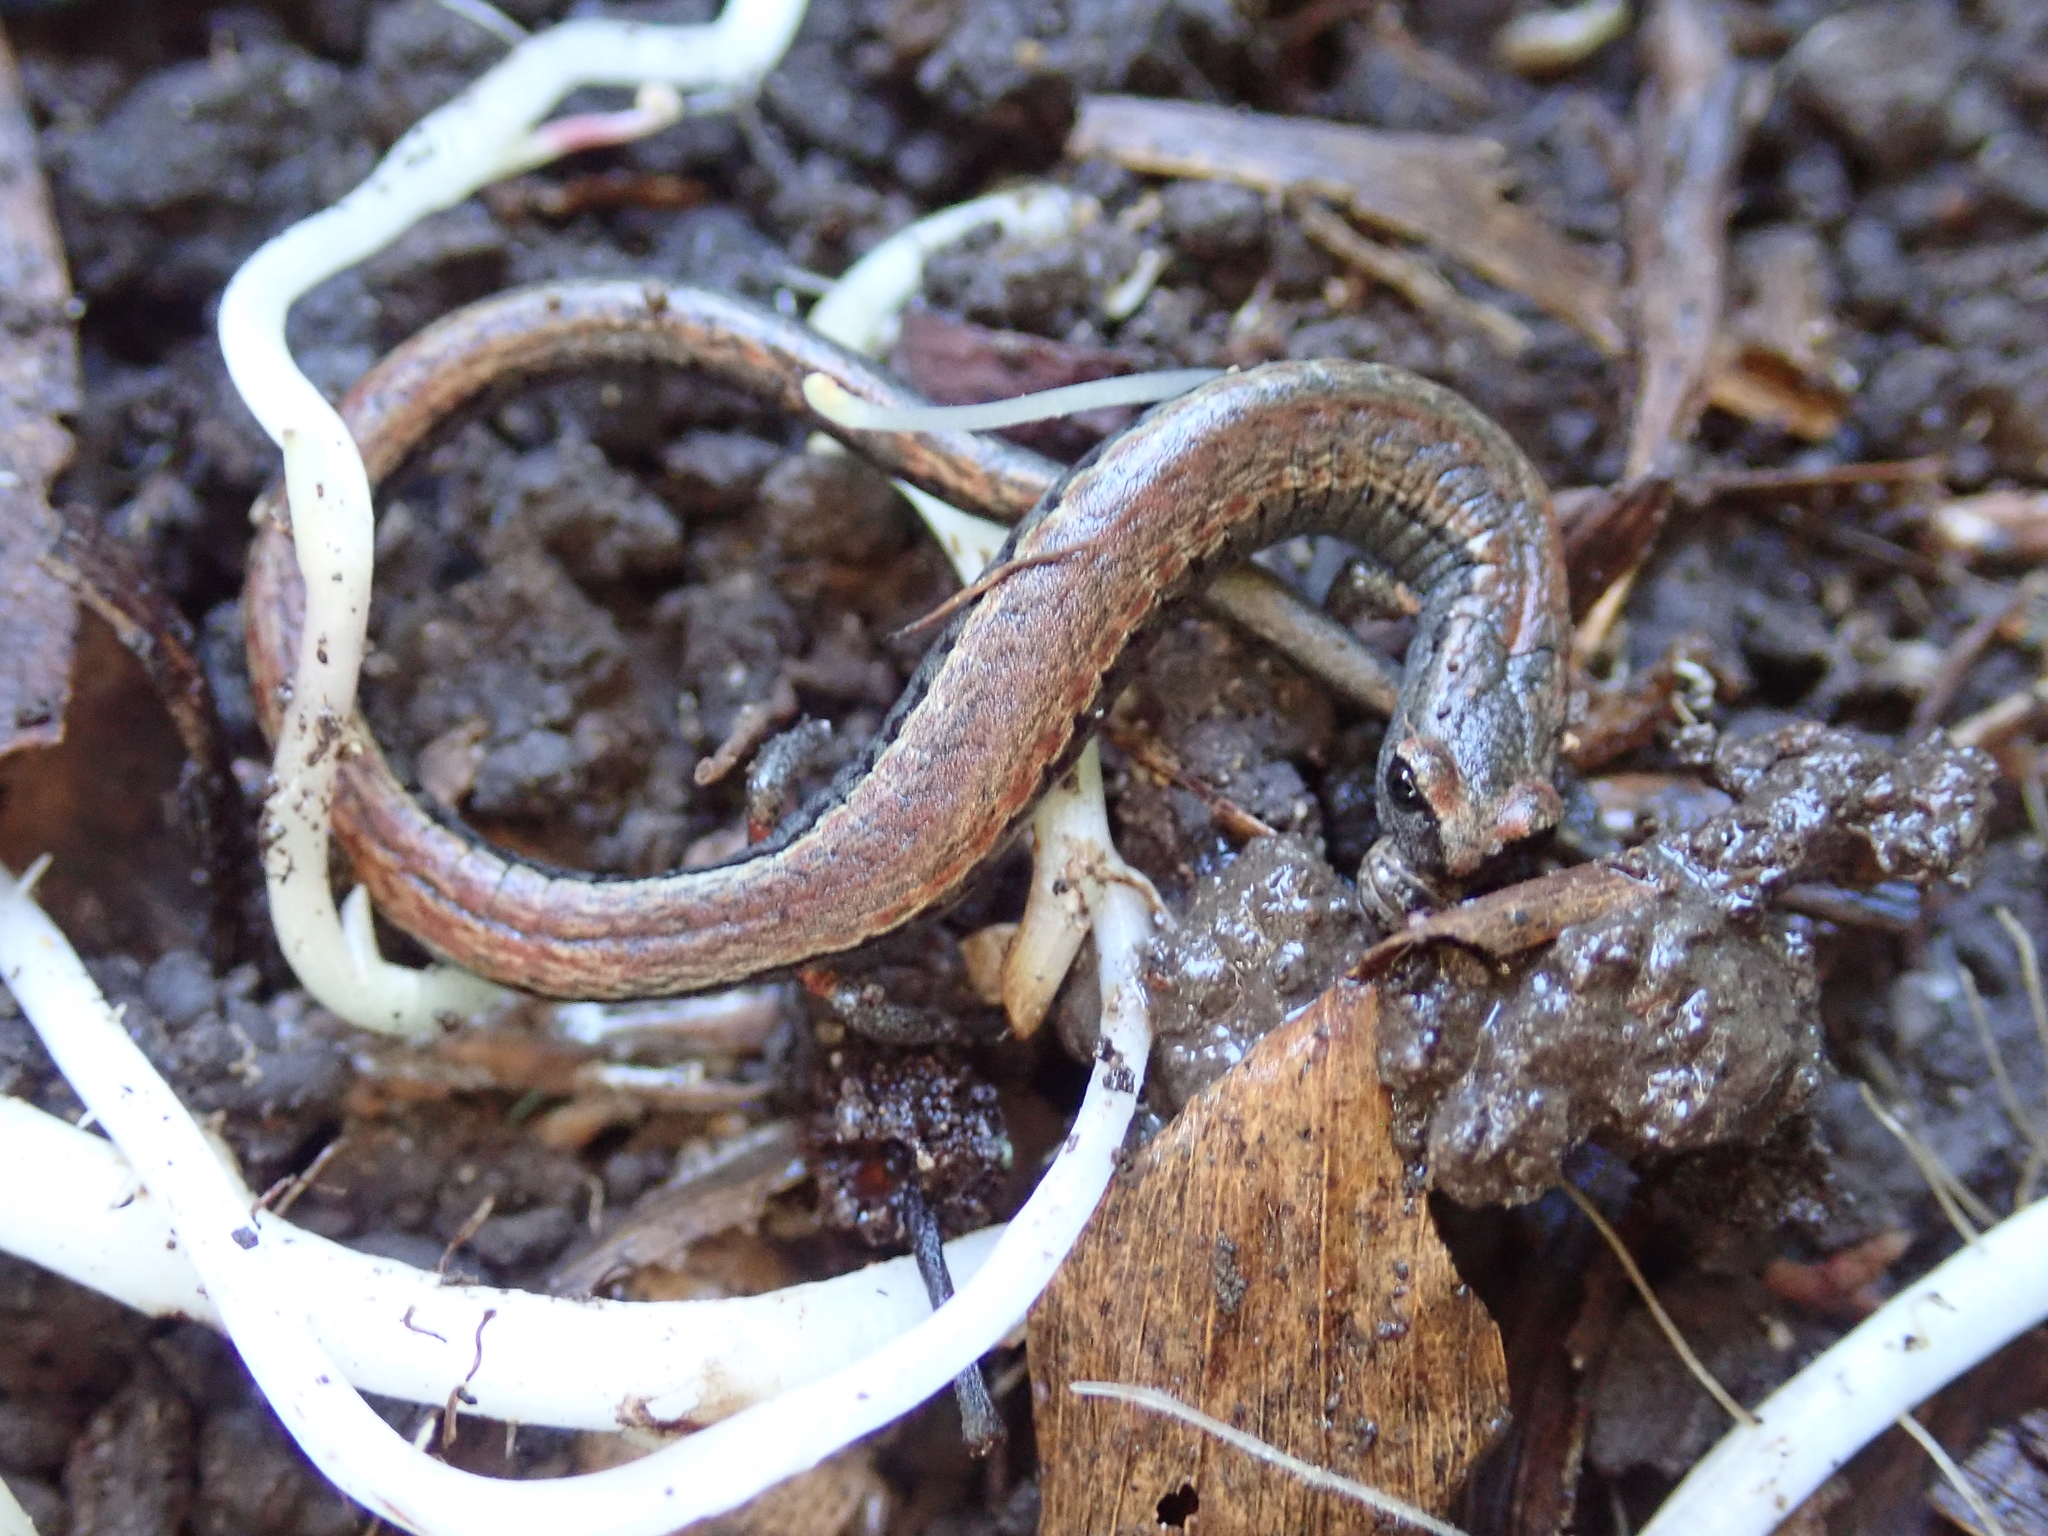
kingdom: Animalia
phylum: Chordata
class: Amphibia
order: Caudata
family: Plethodontidae
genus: Batrachoseps
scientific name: Batrachoseps attenuatus
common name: California slender salamander
